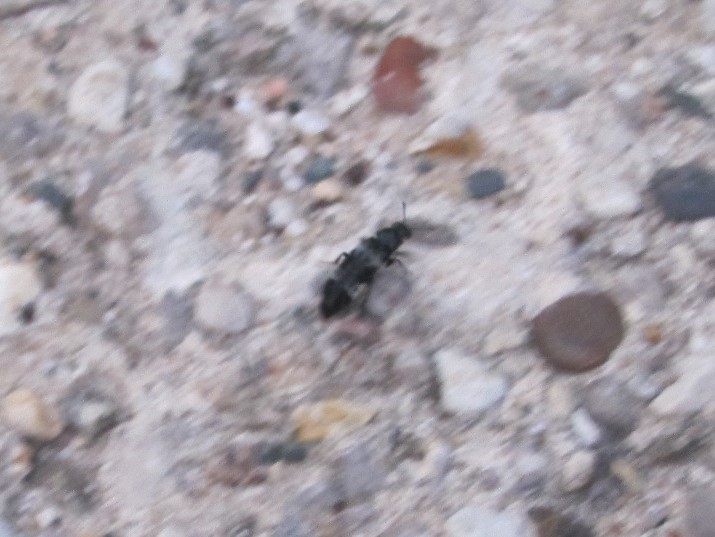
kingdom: Animalia
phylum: Arthropoda
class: Insecta
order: Coleoptera
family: Staphylinidae
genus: Creophilus
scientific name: Creophilus maxillosus
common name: Hairy rove beetle
